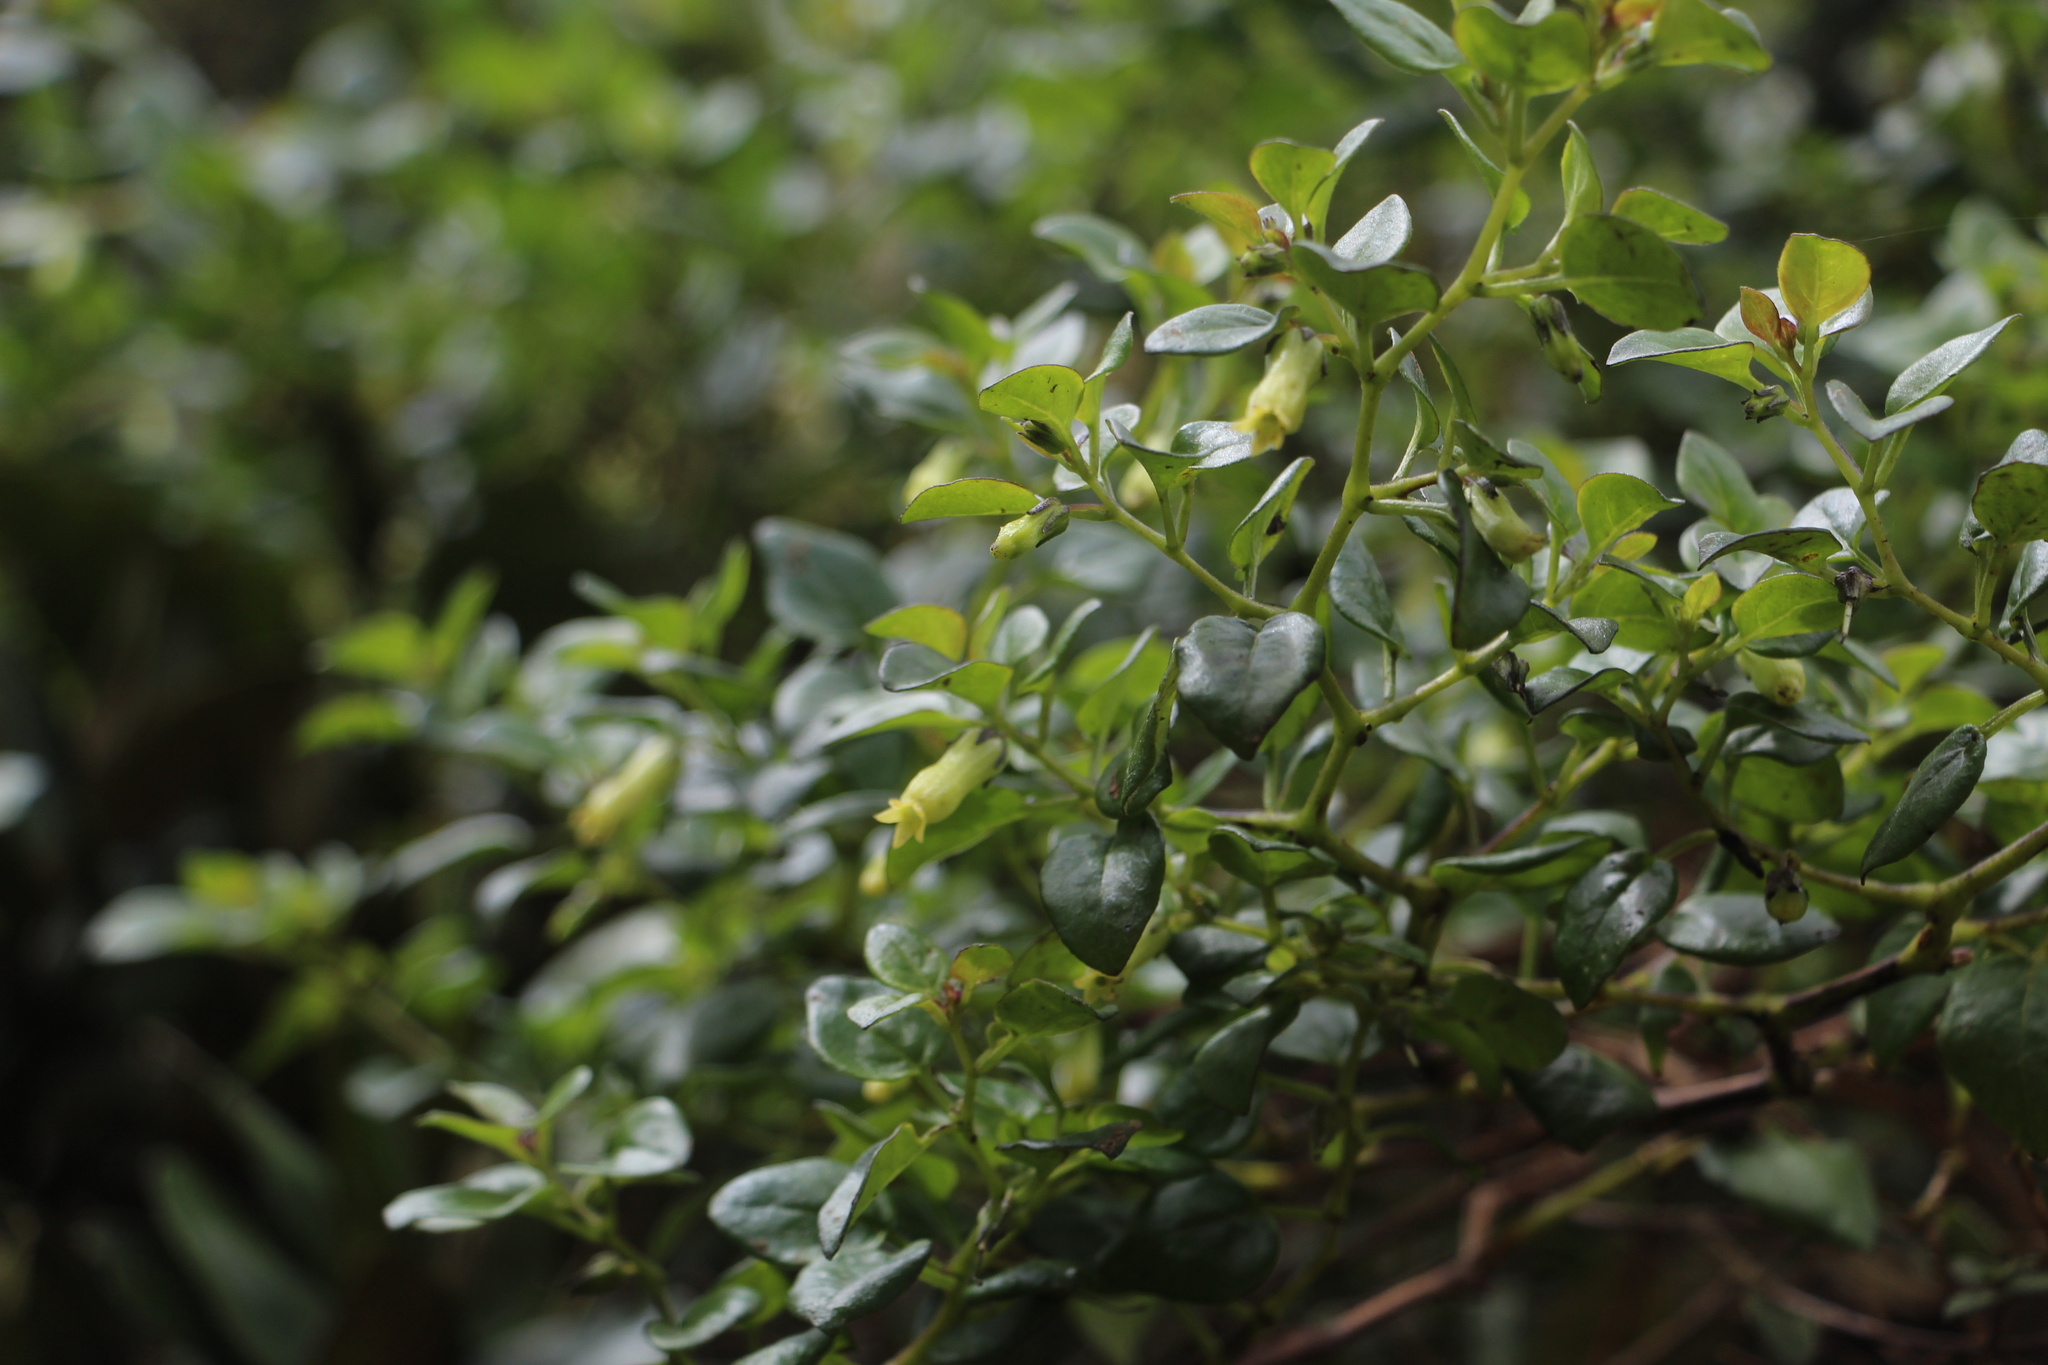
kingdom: Plantae
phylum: Tracheophyta
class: Magnoliopsida
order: Solanales
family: Solanaceae
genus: Salpichroa
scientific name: Salpichroa tristis
